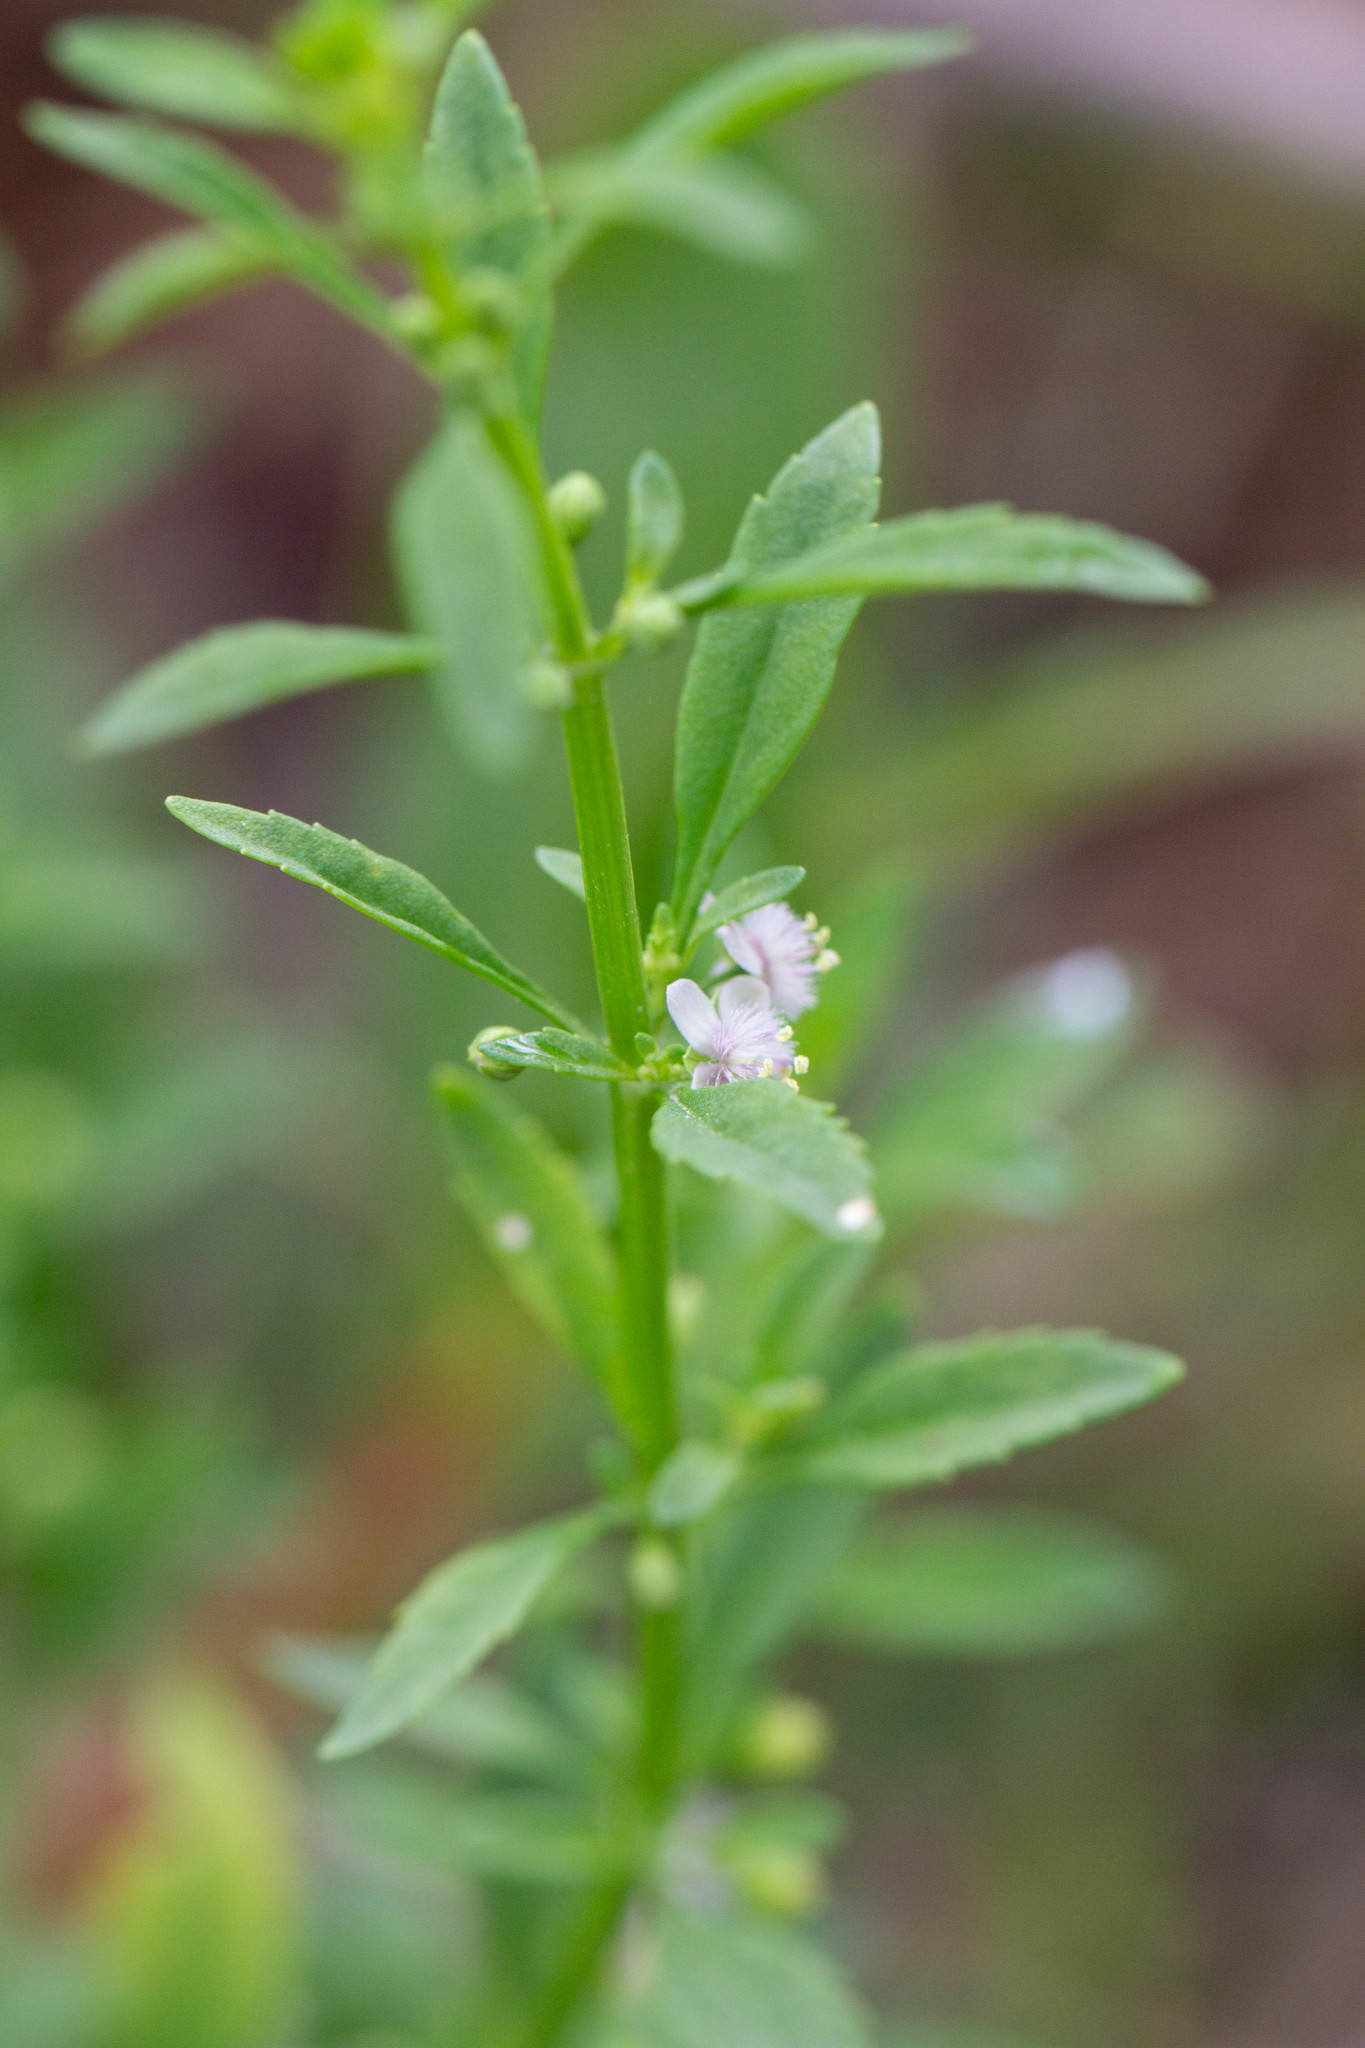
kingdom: Plantae
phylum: Tracheophyta
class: Magnoliopsida
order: Lamiales
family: Plantaginaceae
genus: Scoparia
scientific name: Scoparia dulcis
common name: Scoparia-weed
